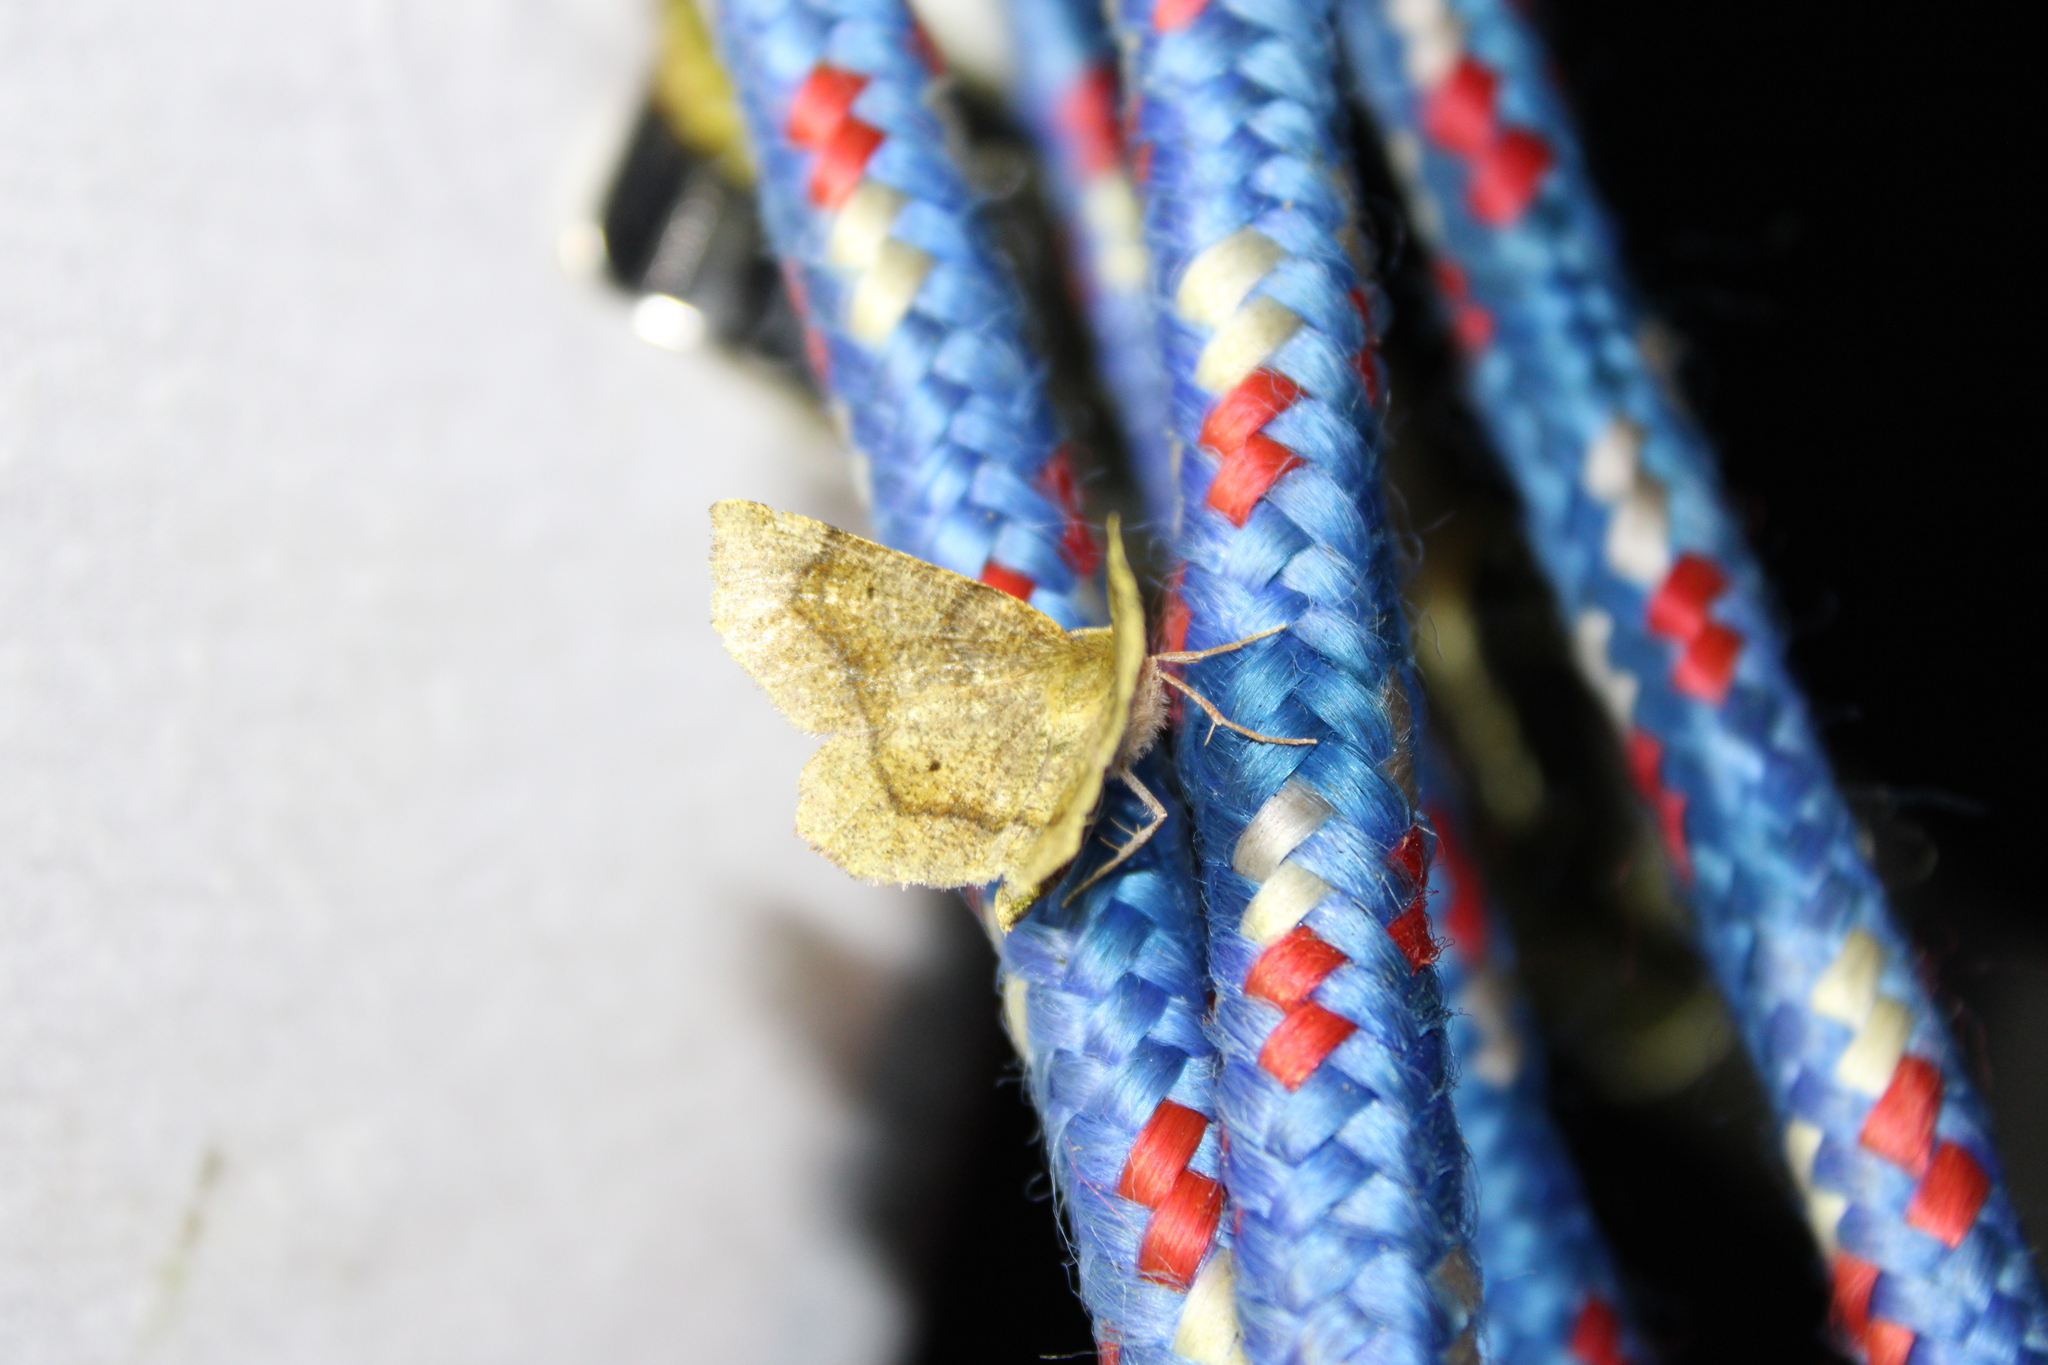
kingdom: Animalia
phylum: Arthropoda
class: Insecta
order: Lepidoptera
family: Geometridae
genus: Metarranthis
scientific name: Metarranthis hypochraria
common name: Common metarranthis
